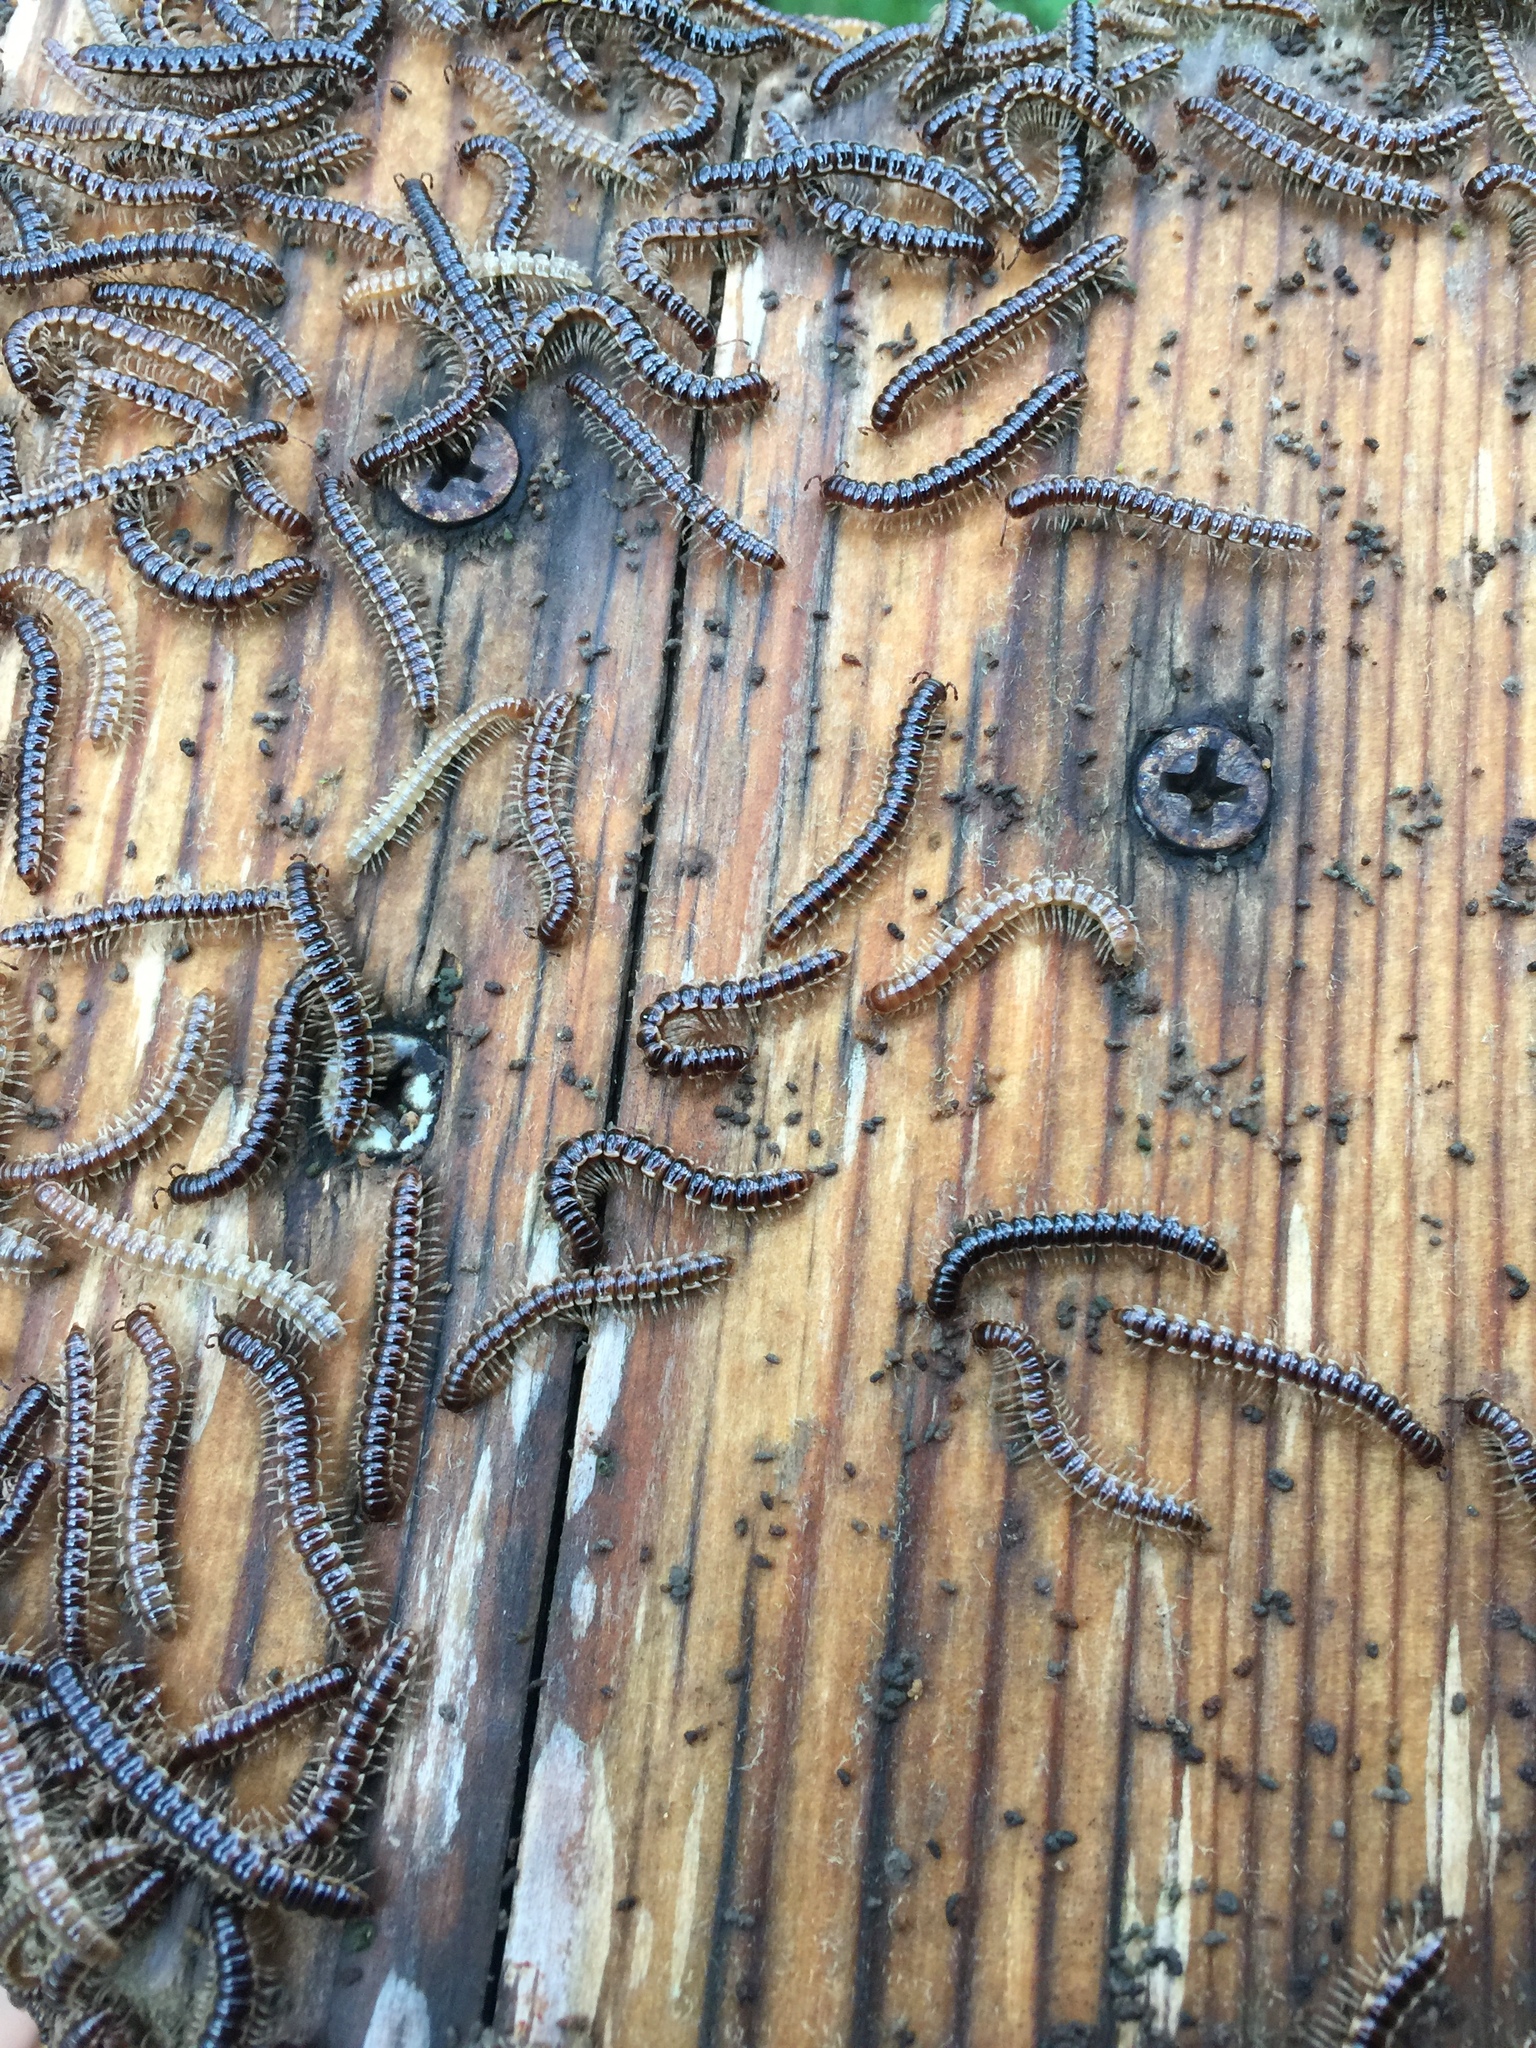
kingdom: Animalia
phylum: Arthropoda
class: Diplopoda
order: Polydesmida
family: Paradoxosomatidae
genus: Oxidus
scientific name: Oxidus gracilis
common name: Greenhouse millipede
